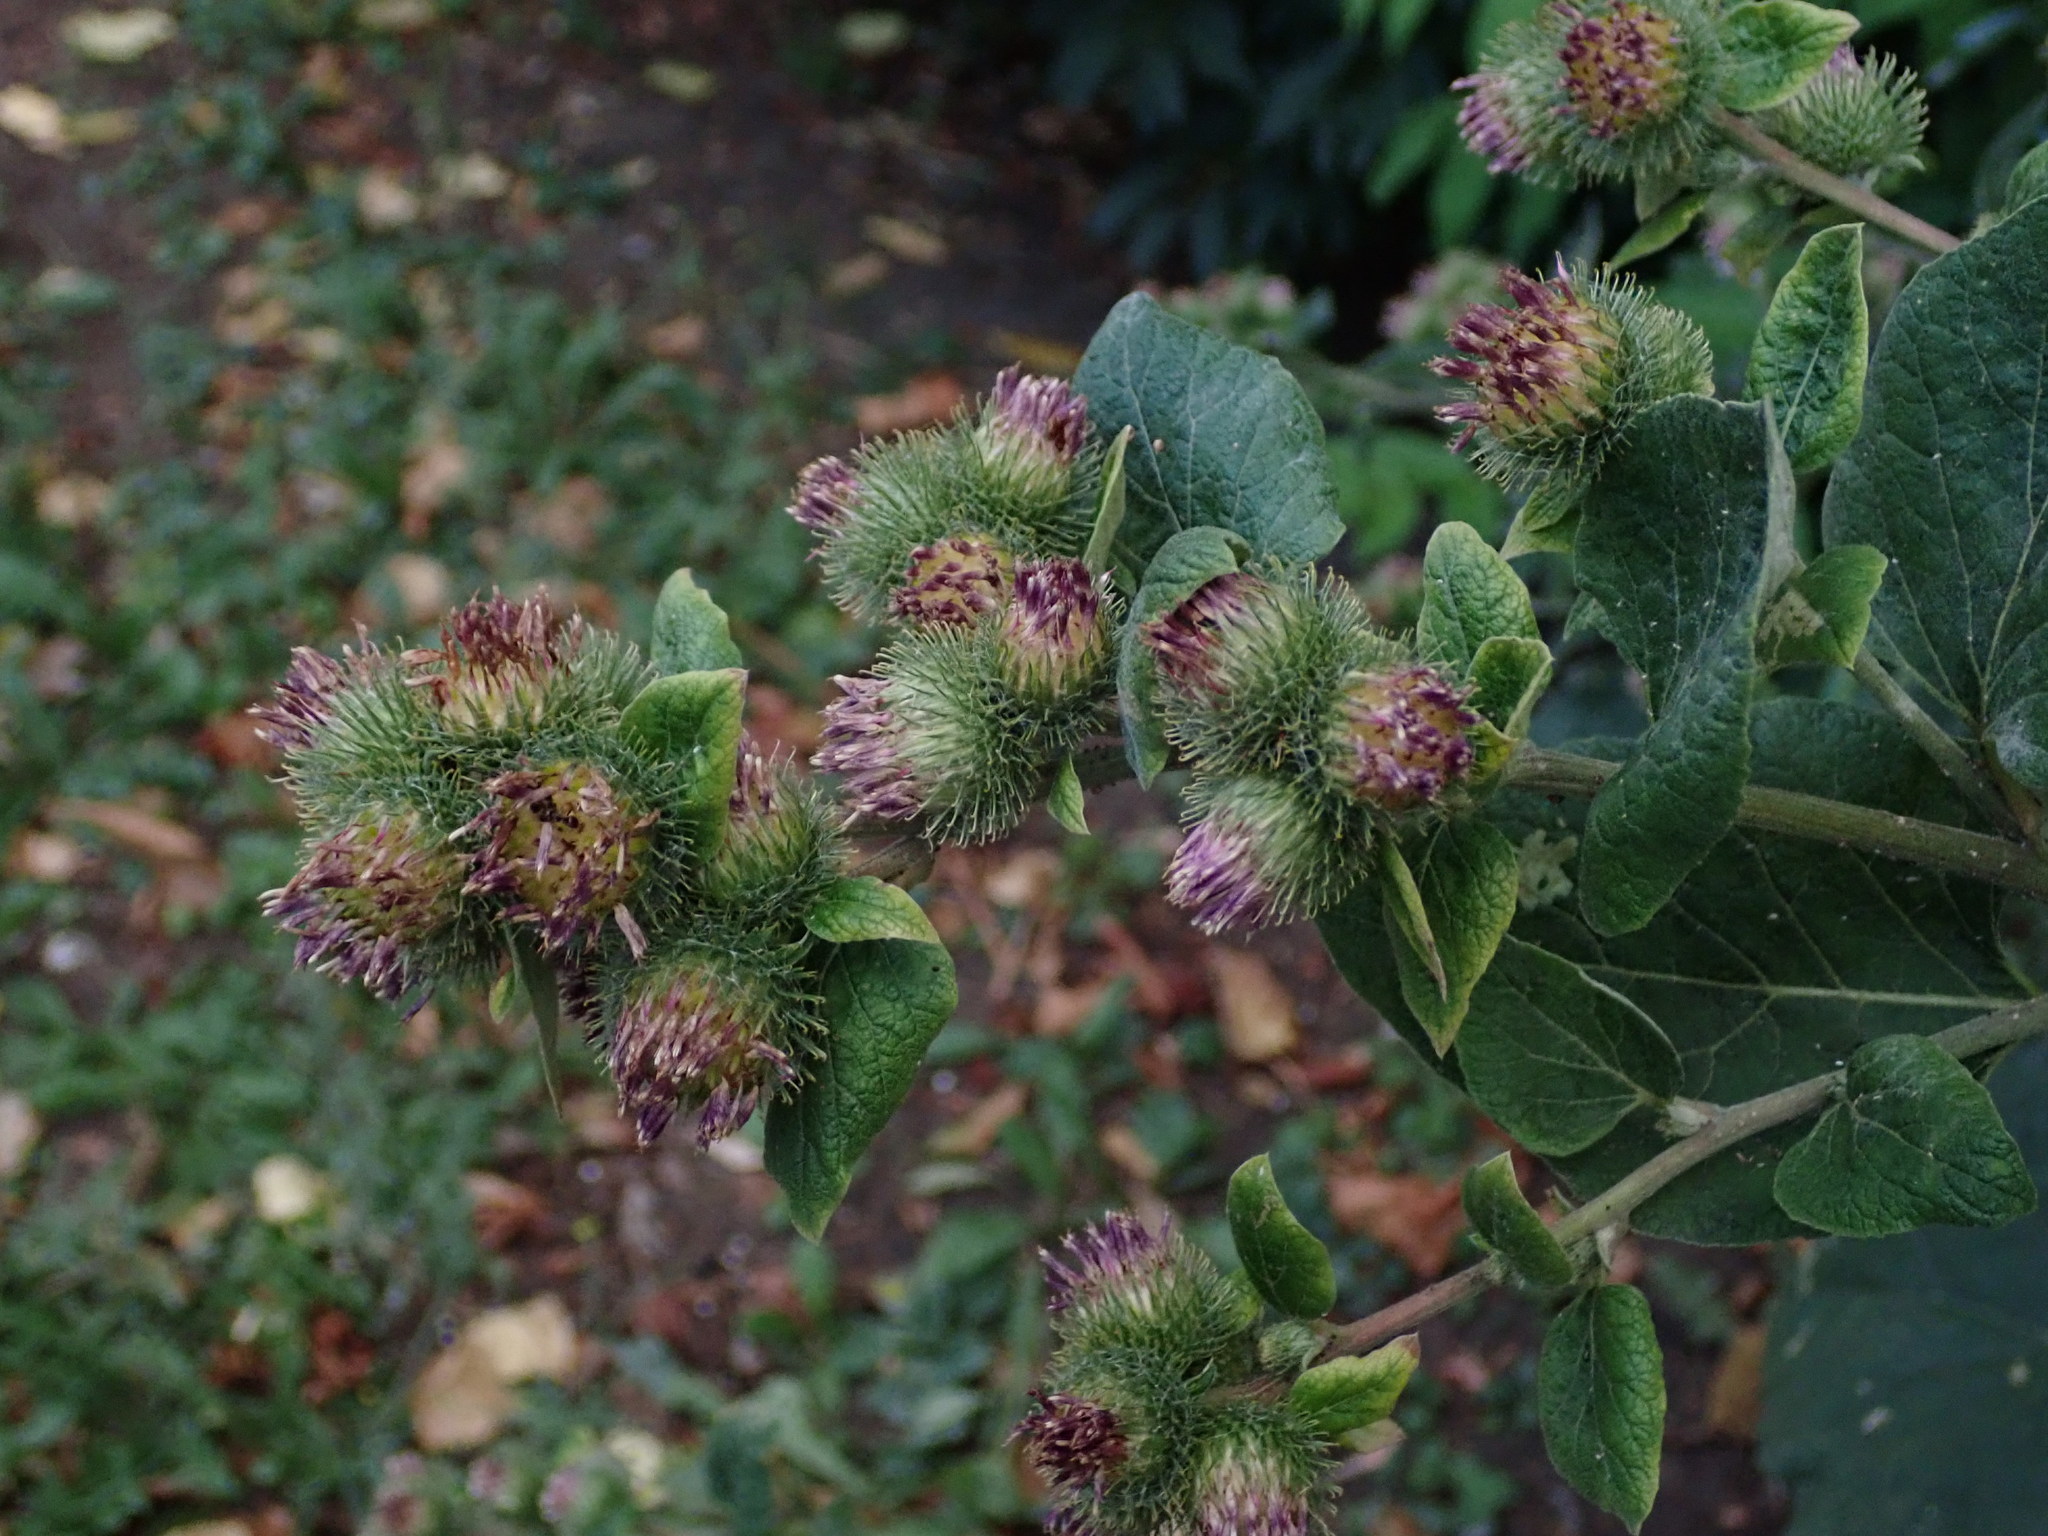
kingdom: Plantae
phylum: Tracheophyta
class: Magnoliopsida
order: Asterales
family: Asteraceae
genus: Arctium
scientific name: Arctium minus
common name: Lesser burdock
